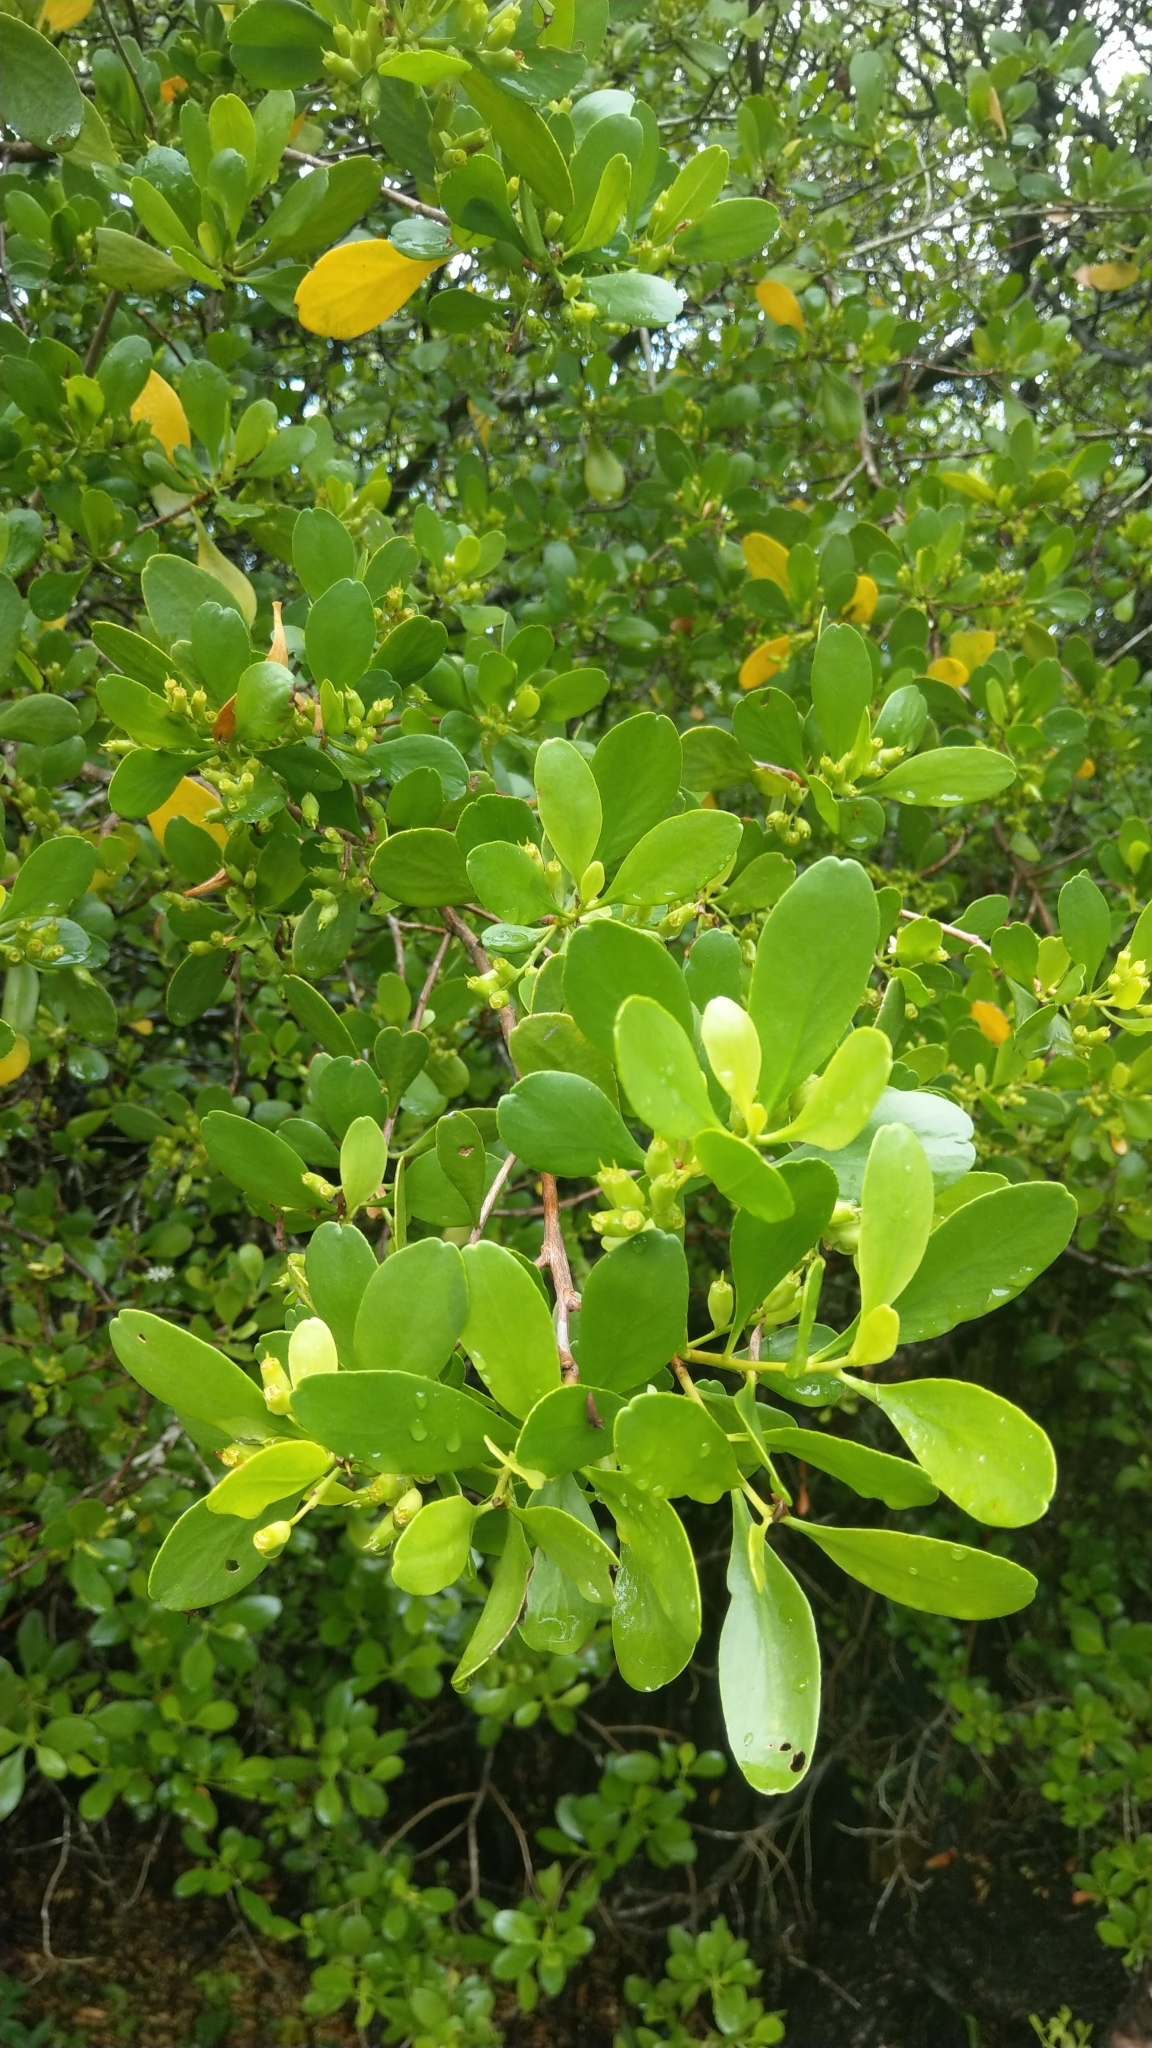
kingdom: Plantae
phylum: Tracheophyta
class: Magnoliopsida
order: Myrtales
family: Combretaceae
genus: Lumnitzera
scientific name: Lumnitzera racemosa
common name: White-flowered black mangrove
